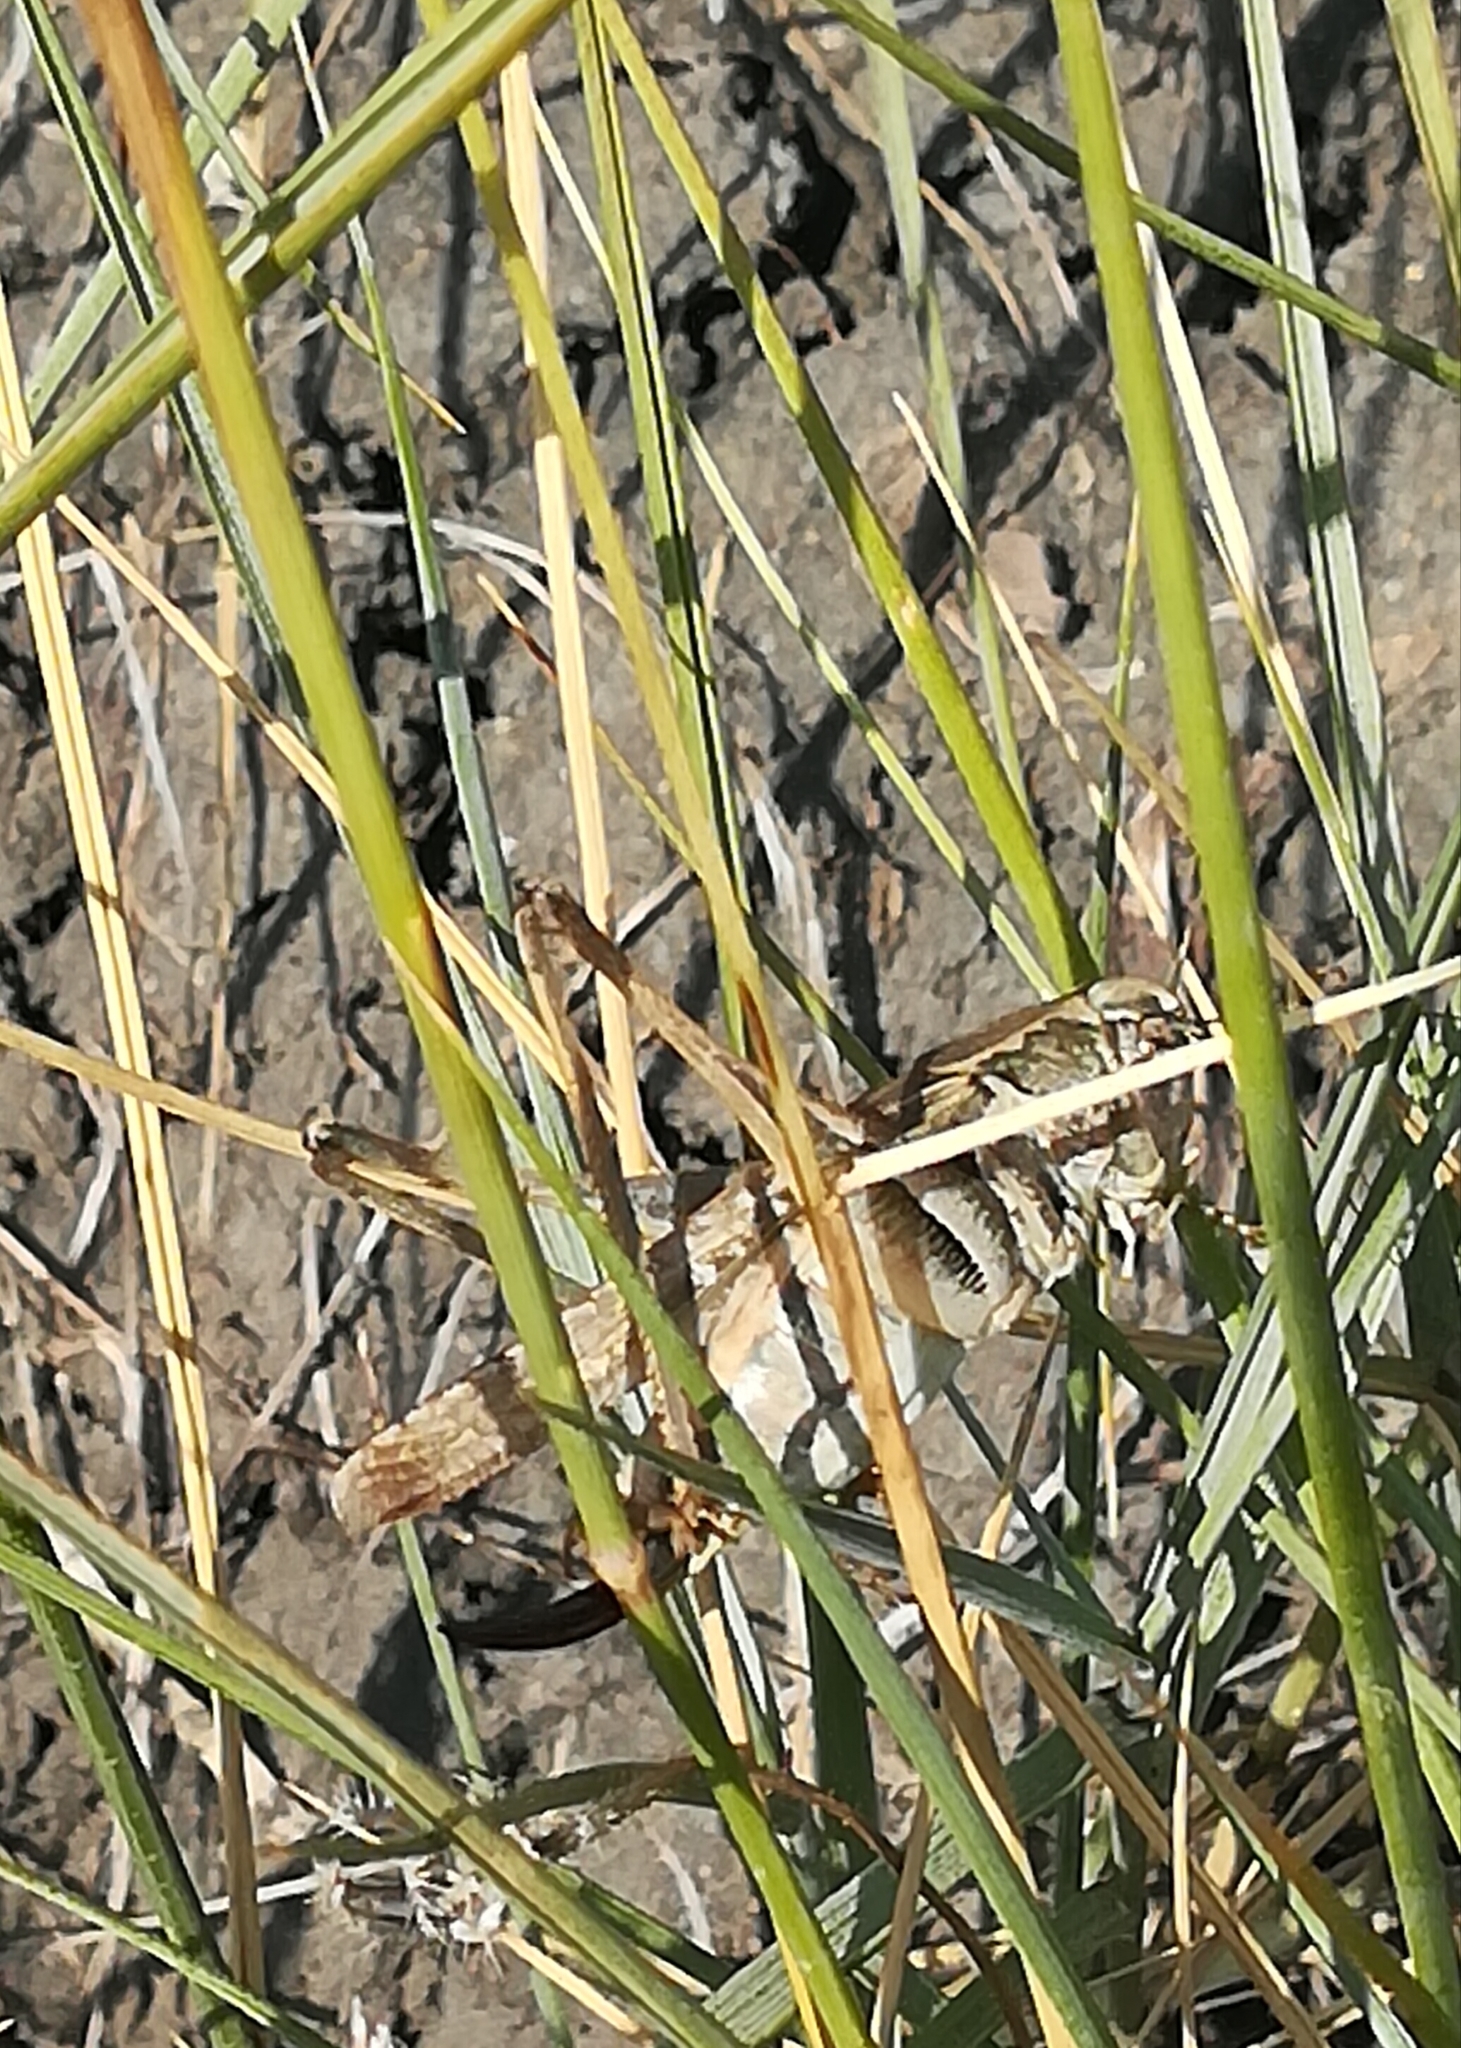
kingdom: Animalia
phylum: Arthropoda
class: Insecta
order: Orthoptera
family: Tettigoniidae
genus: Platycleis
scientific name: Platycleis grisea
